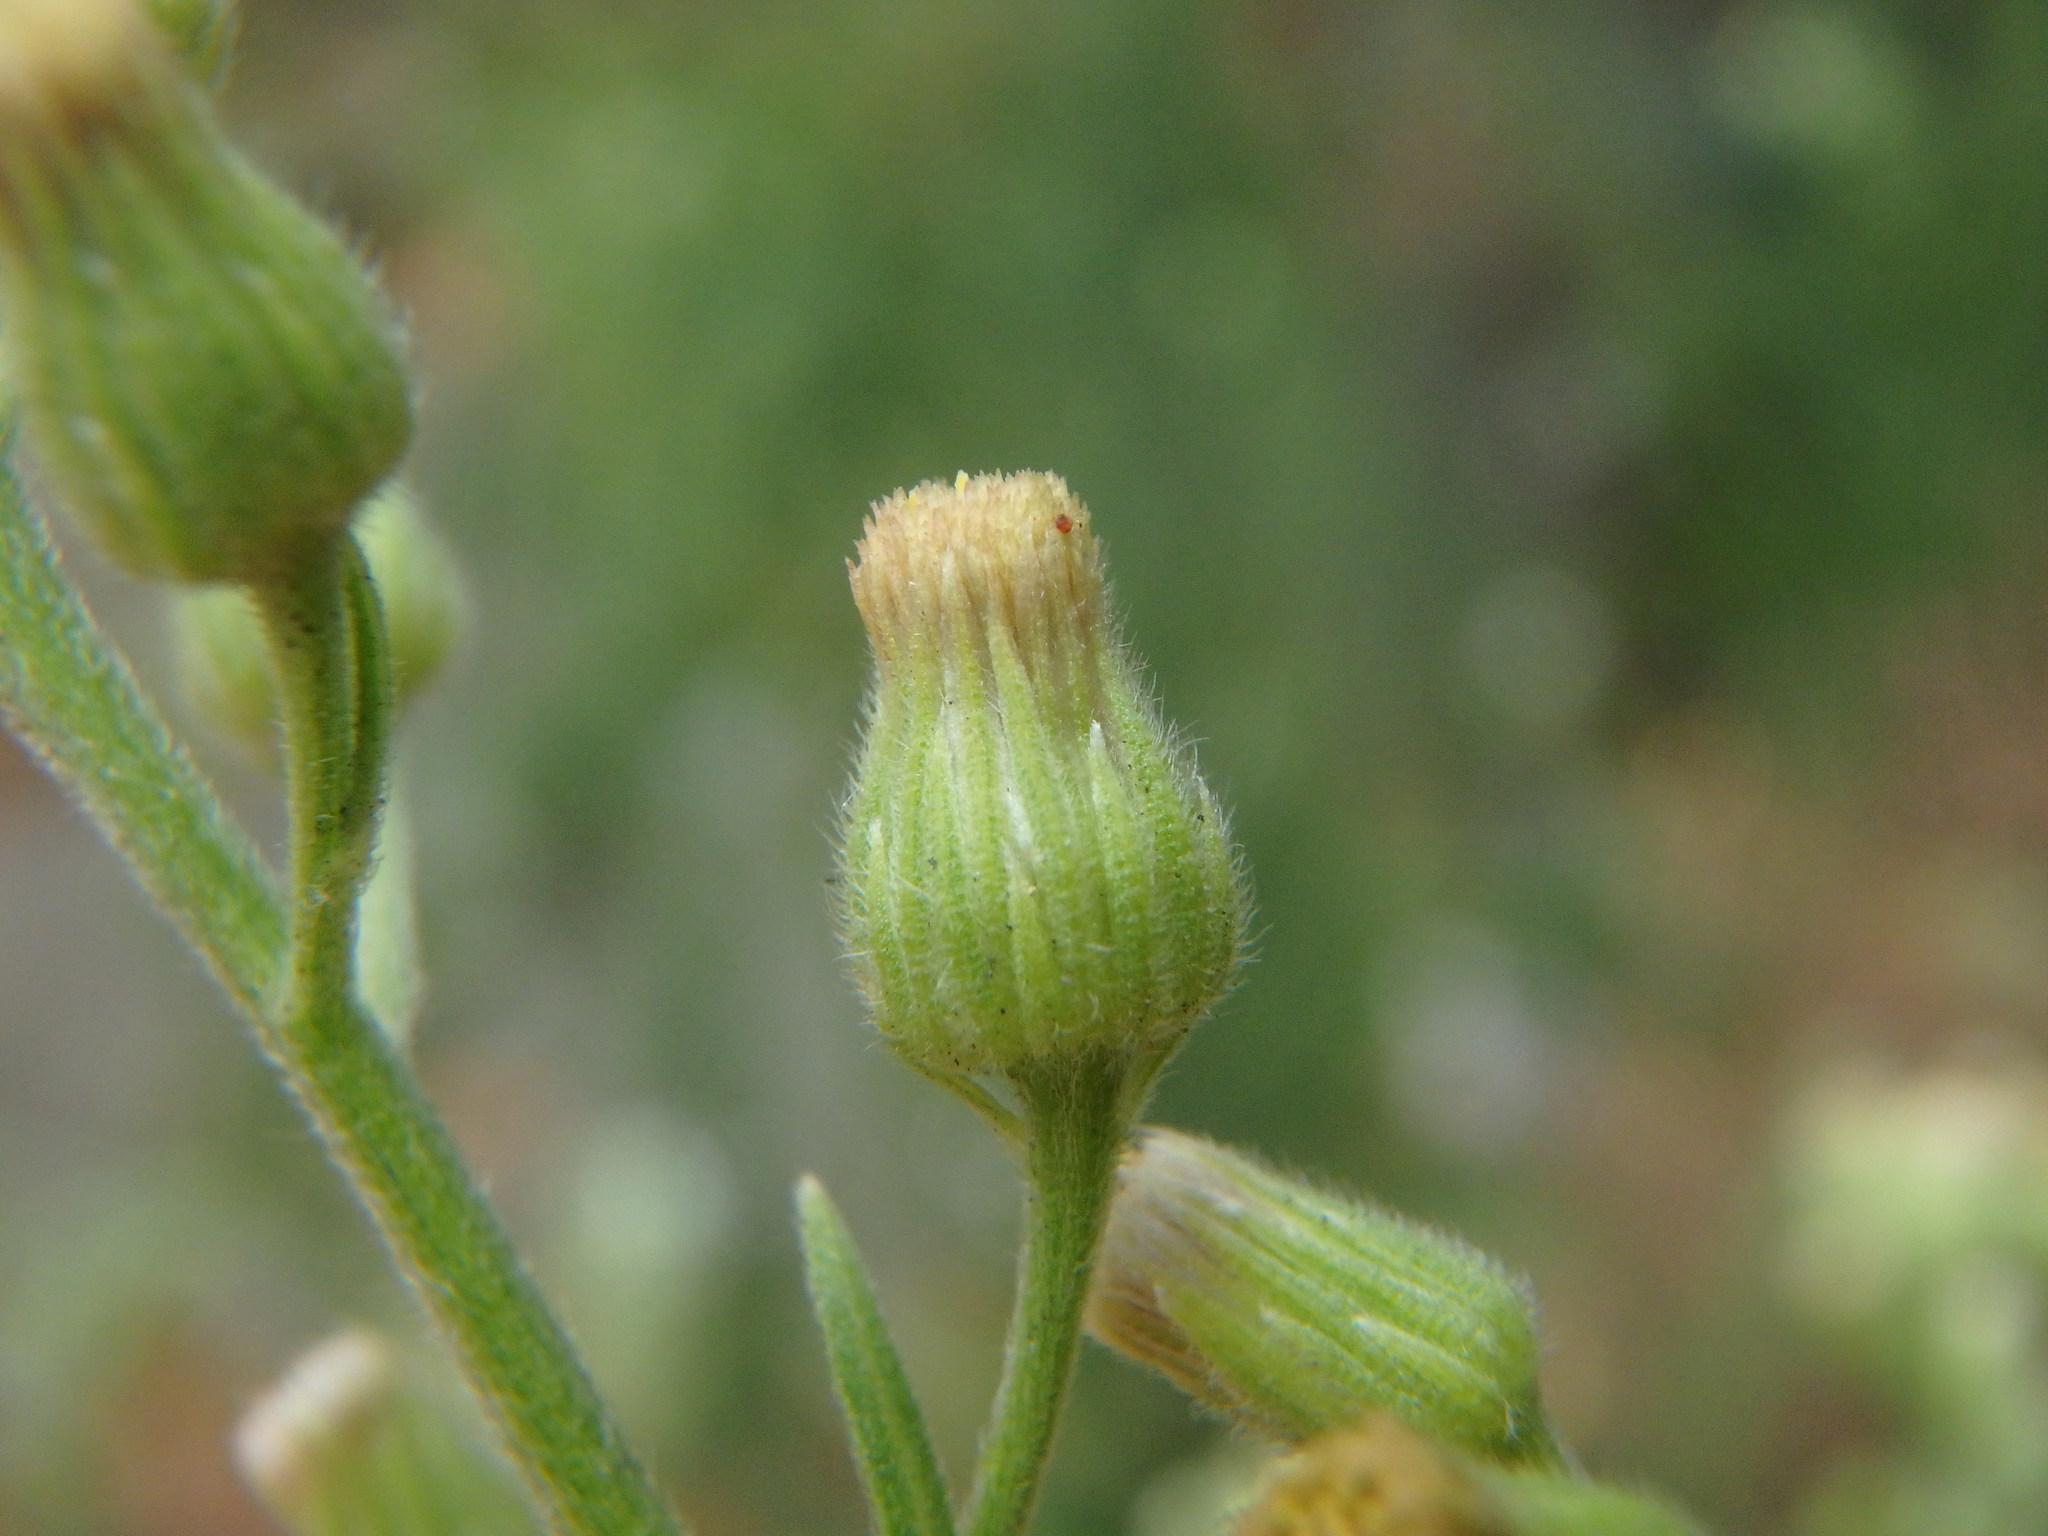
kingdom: Plantae
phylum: Tracheophyta
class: Magnoliopsida
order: Asterales
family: Asteraceae
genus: Erigeron
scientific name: Erigeron sumatrensis
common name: Daisy
